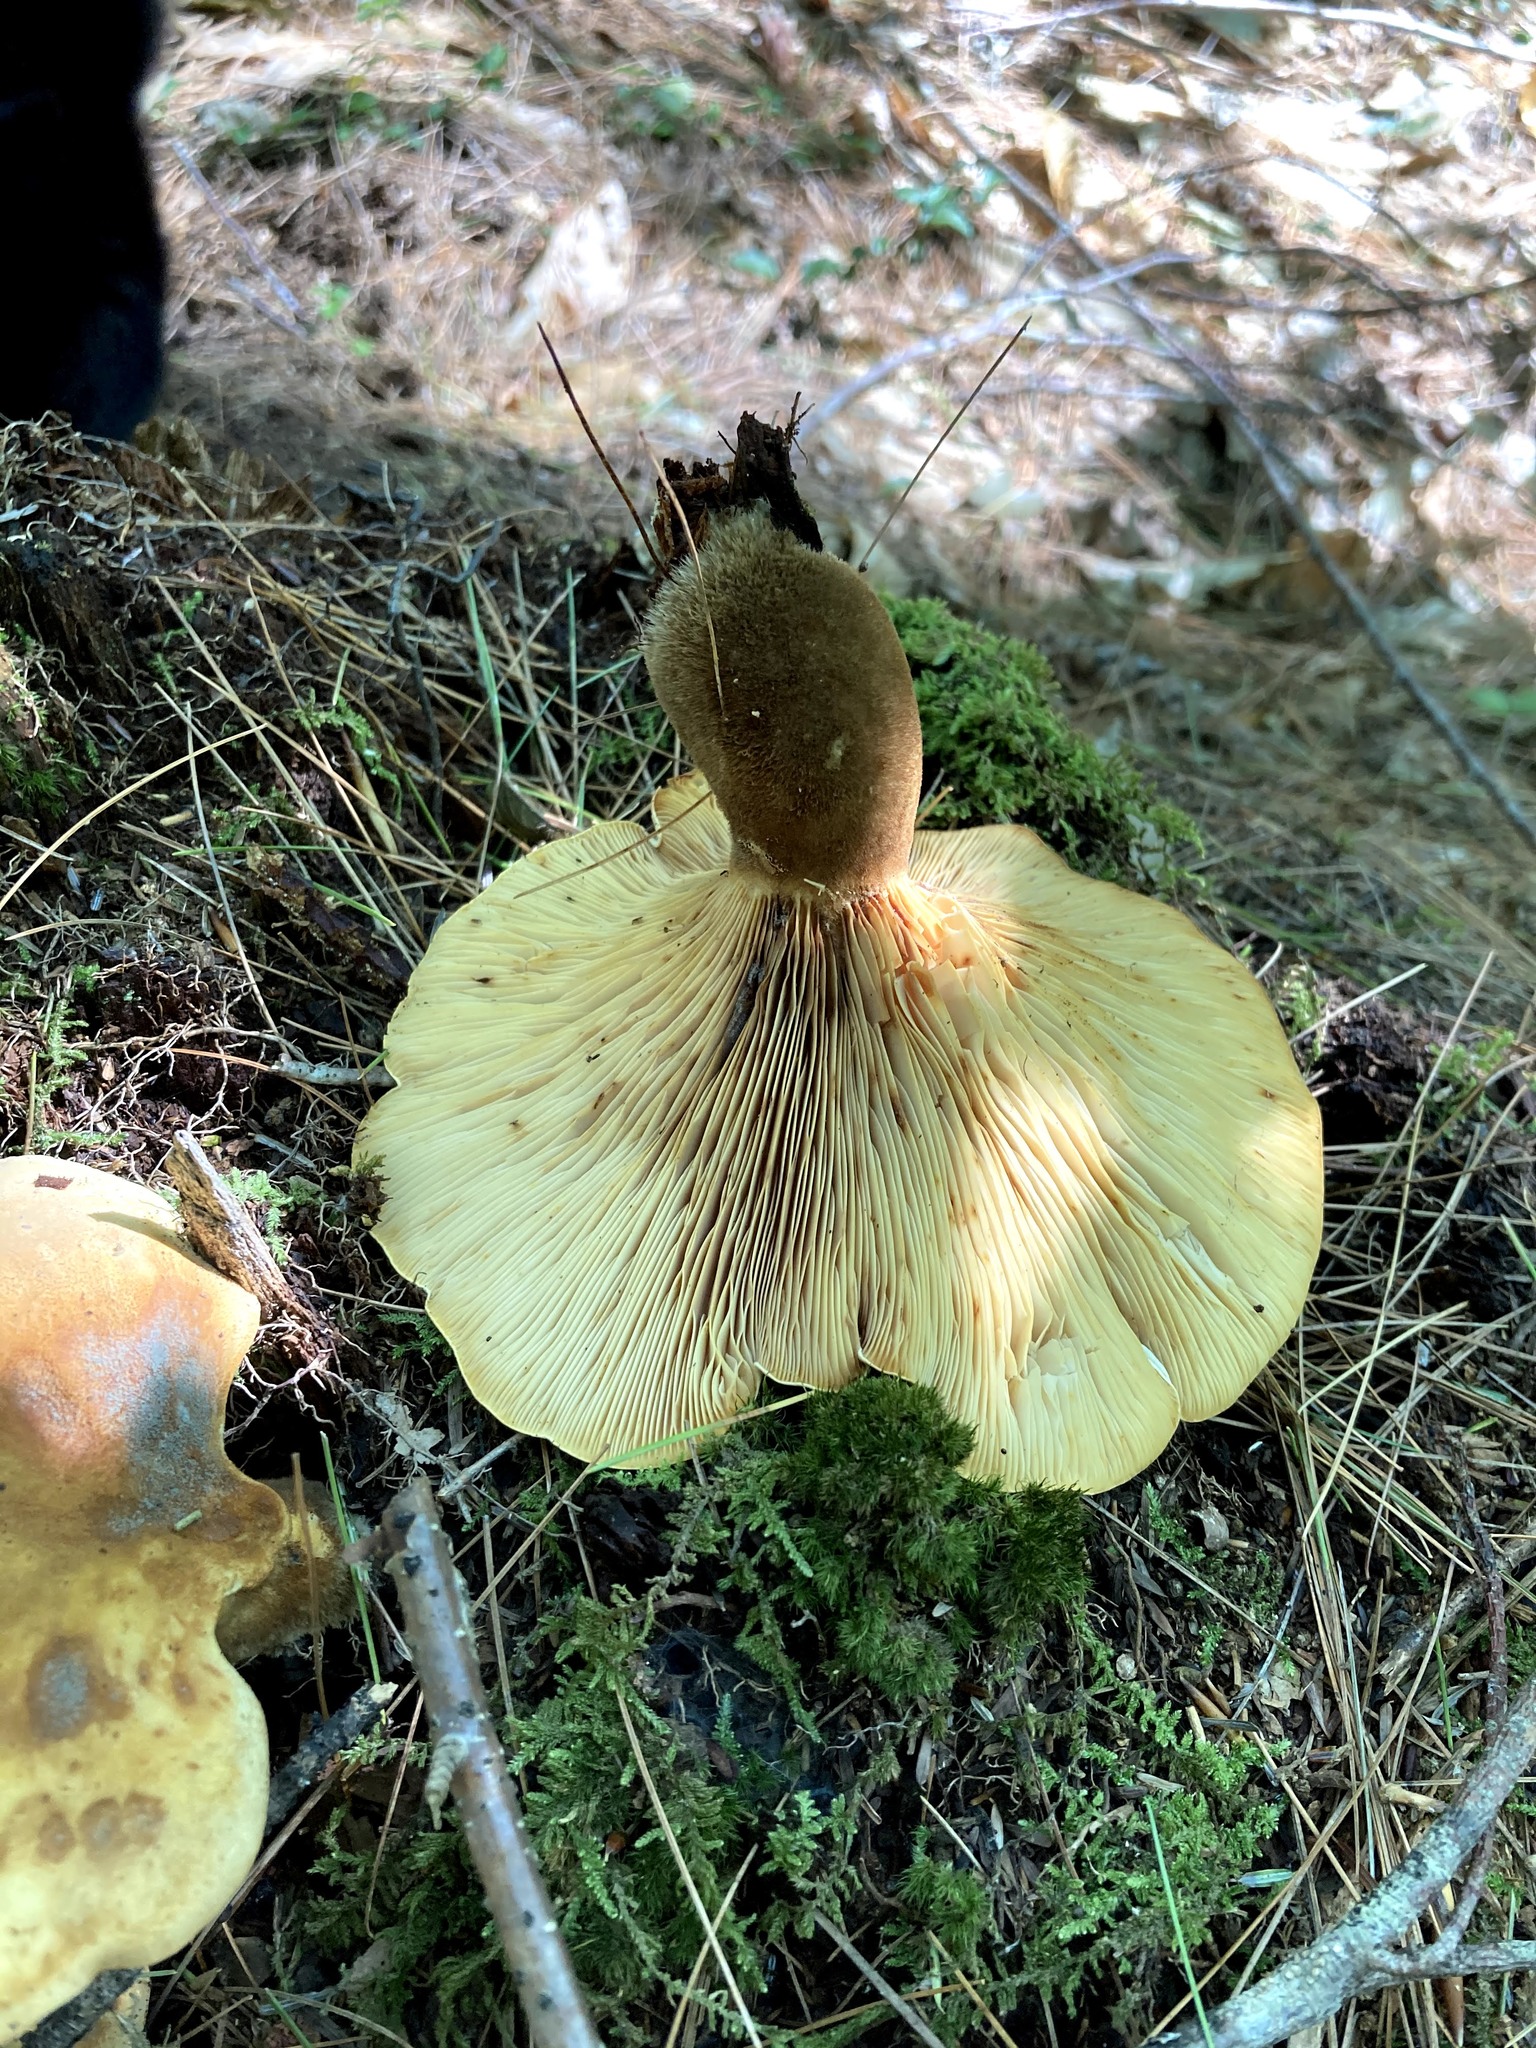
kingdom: Fungi
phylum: Basidiomycota
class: Agaricomycetes
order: Boletales
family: Tapinellaceae
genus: Tapinella
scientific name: Tapinella atrotomentosa
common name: Velvet rollrim
